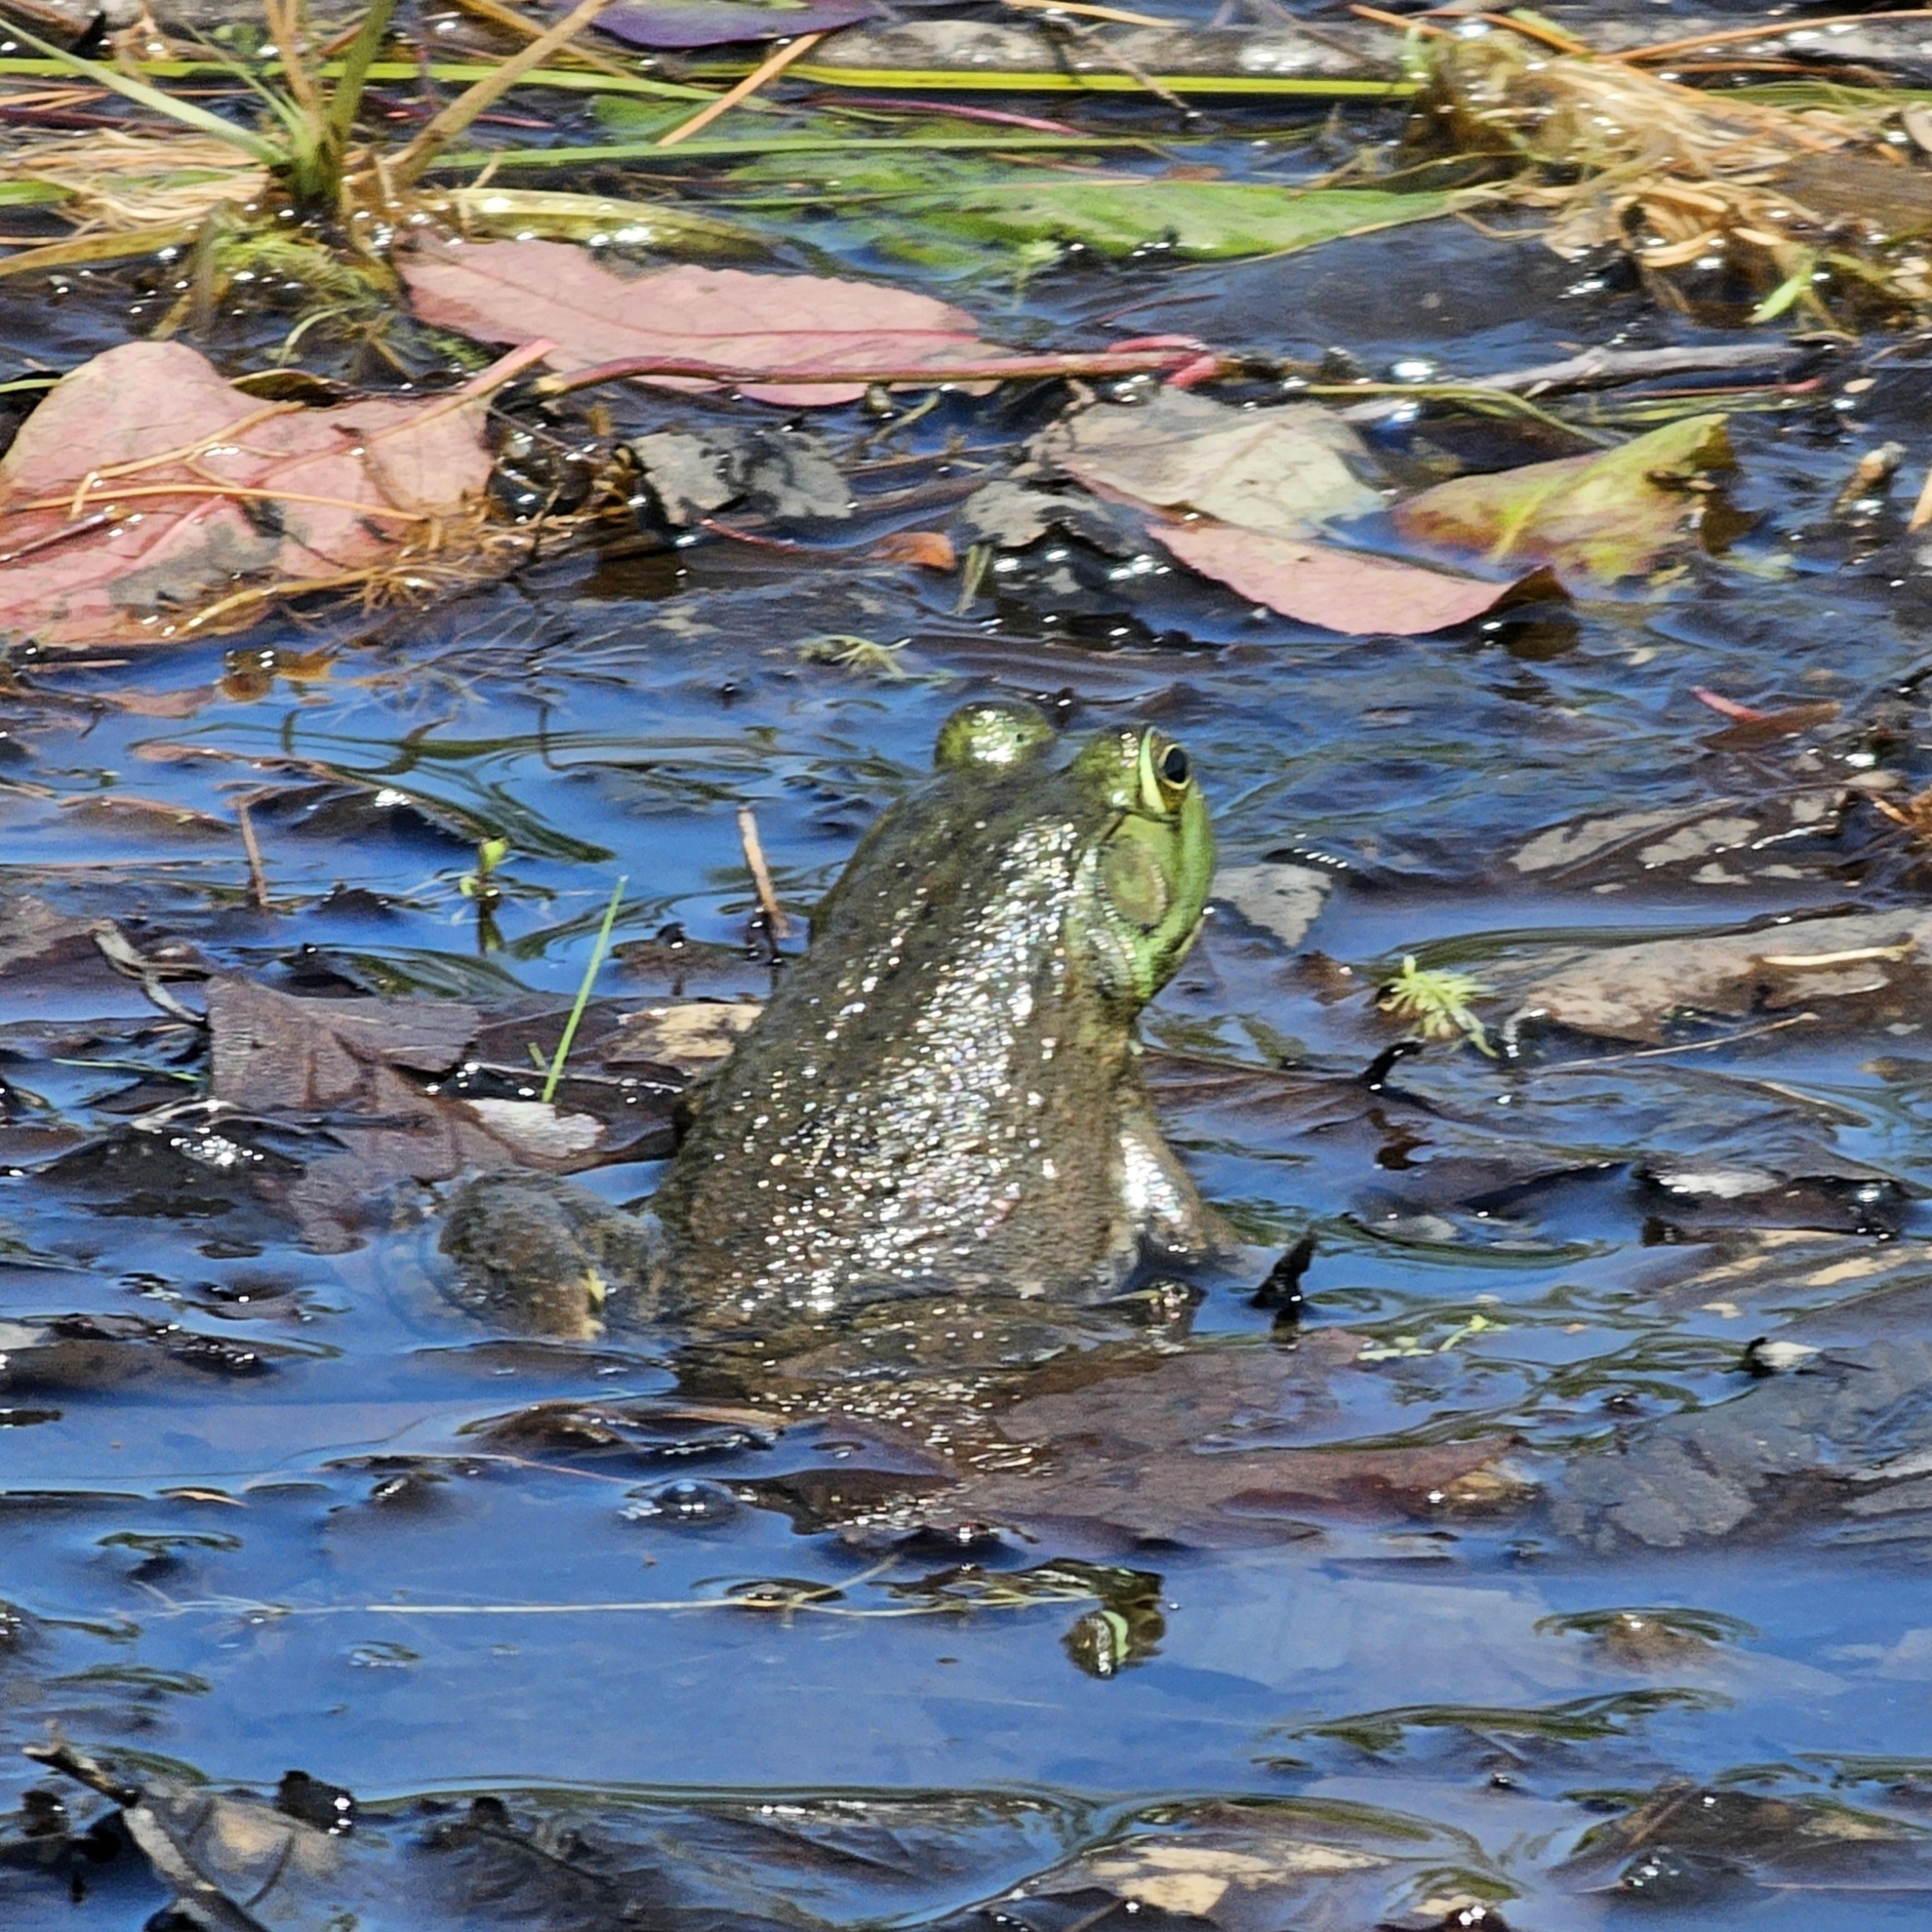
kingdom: Animalia
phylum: Chordata
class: Amphibia
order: Anura
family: Ranidae
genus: Lithobates
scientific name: Lithobates catesbeianus
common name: American bullfrog
